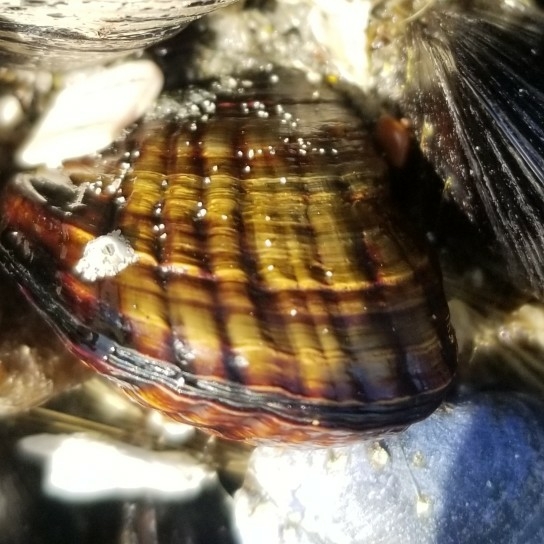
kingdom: Animalia
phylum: Mollusca
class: Bivalvia
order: Mytilida
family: Mytilidae
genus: Mytilus
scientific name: Mytilus californianus
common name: California mussel
